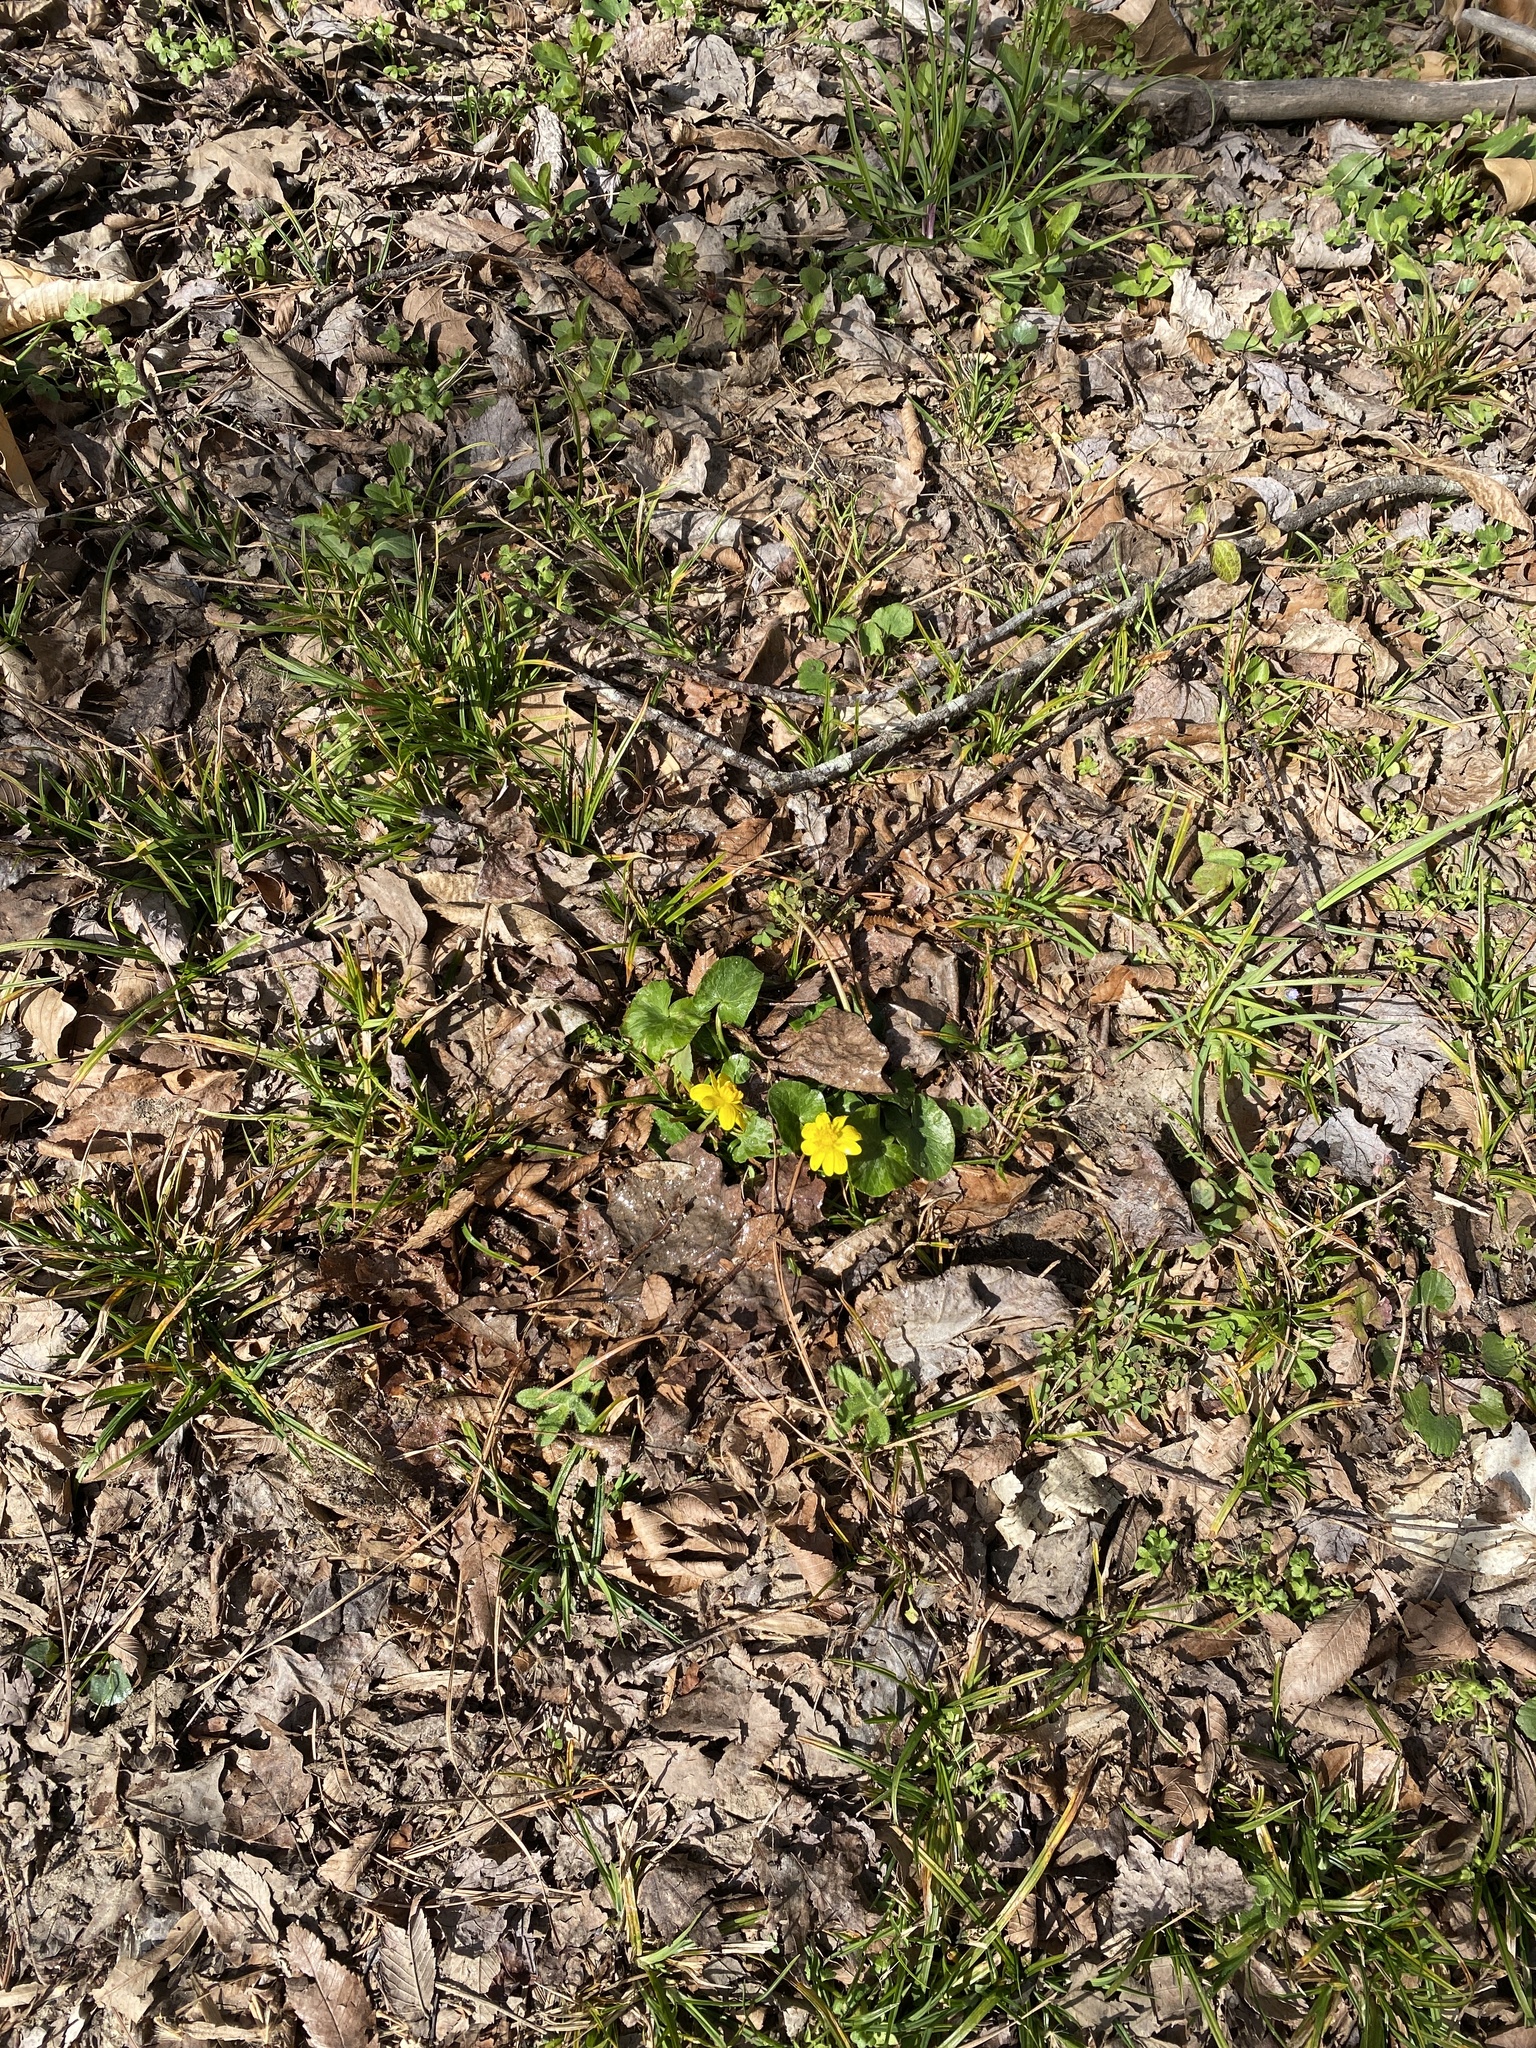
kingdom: Plantae
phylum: Tracheophyta
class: Magnoliopsida
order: Ranunculales
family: Ranunculaceae
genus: Ficaria
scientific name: Ficaria verna
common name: Lesser celandine
